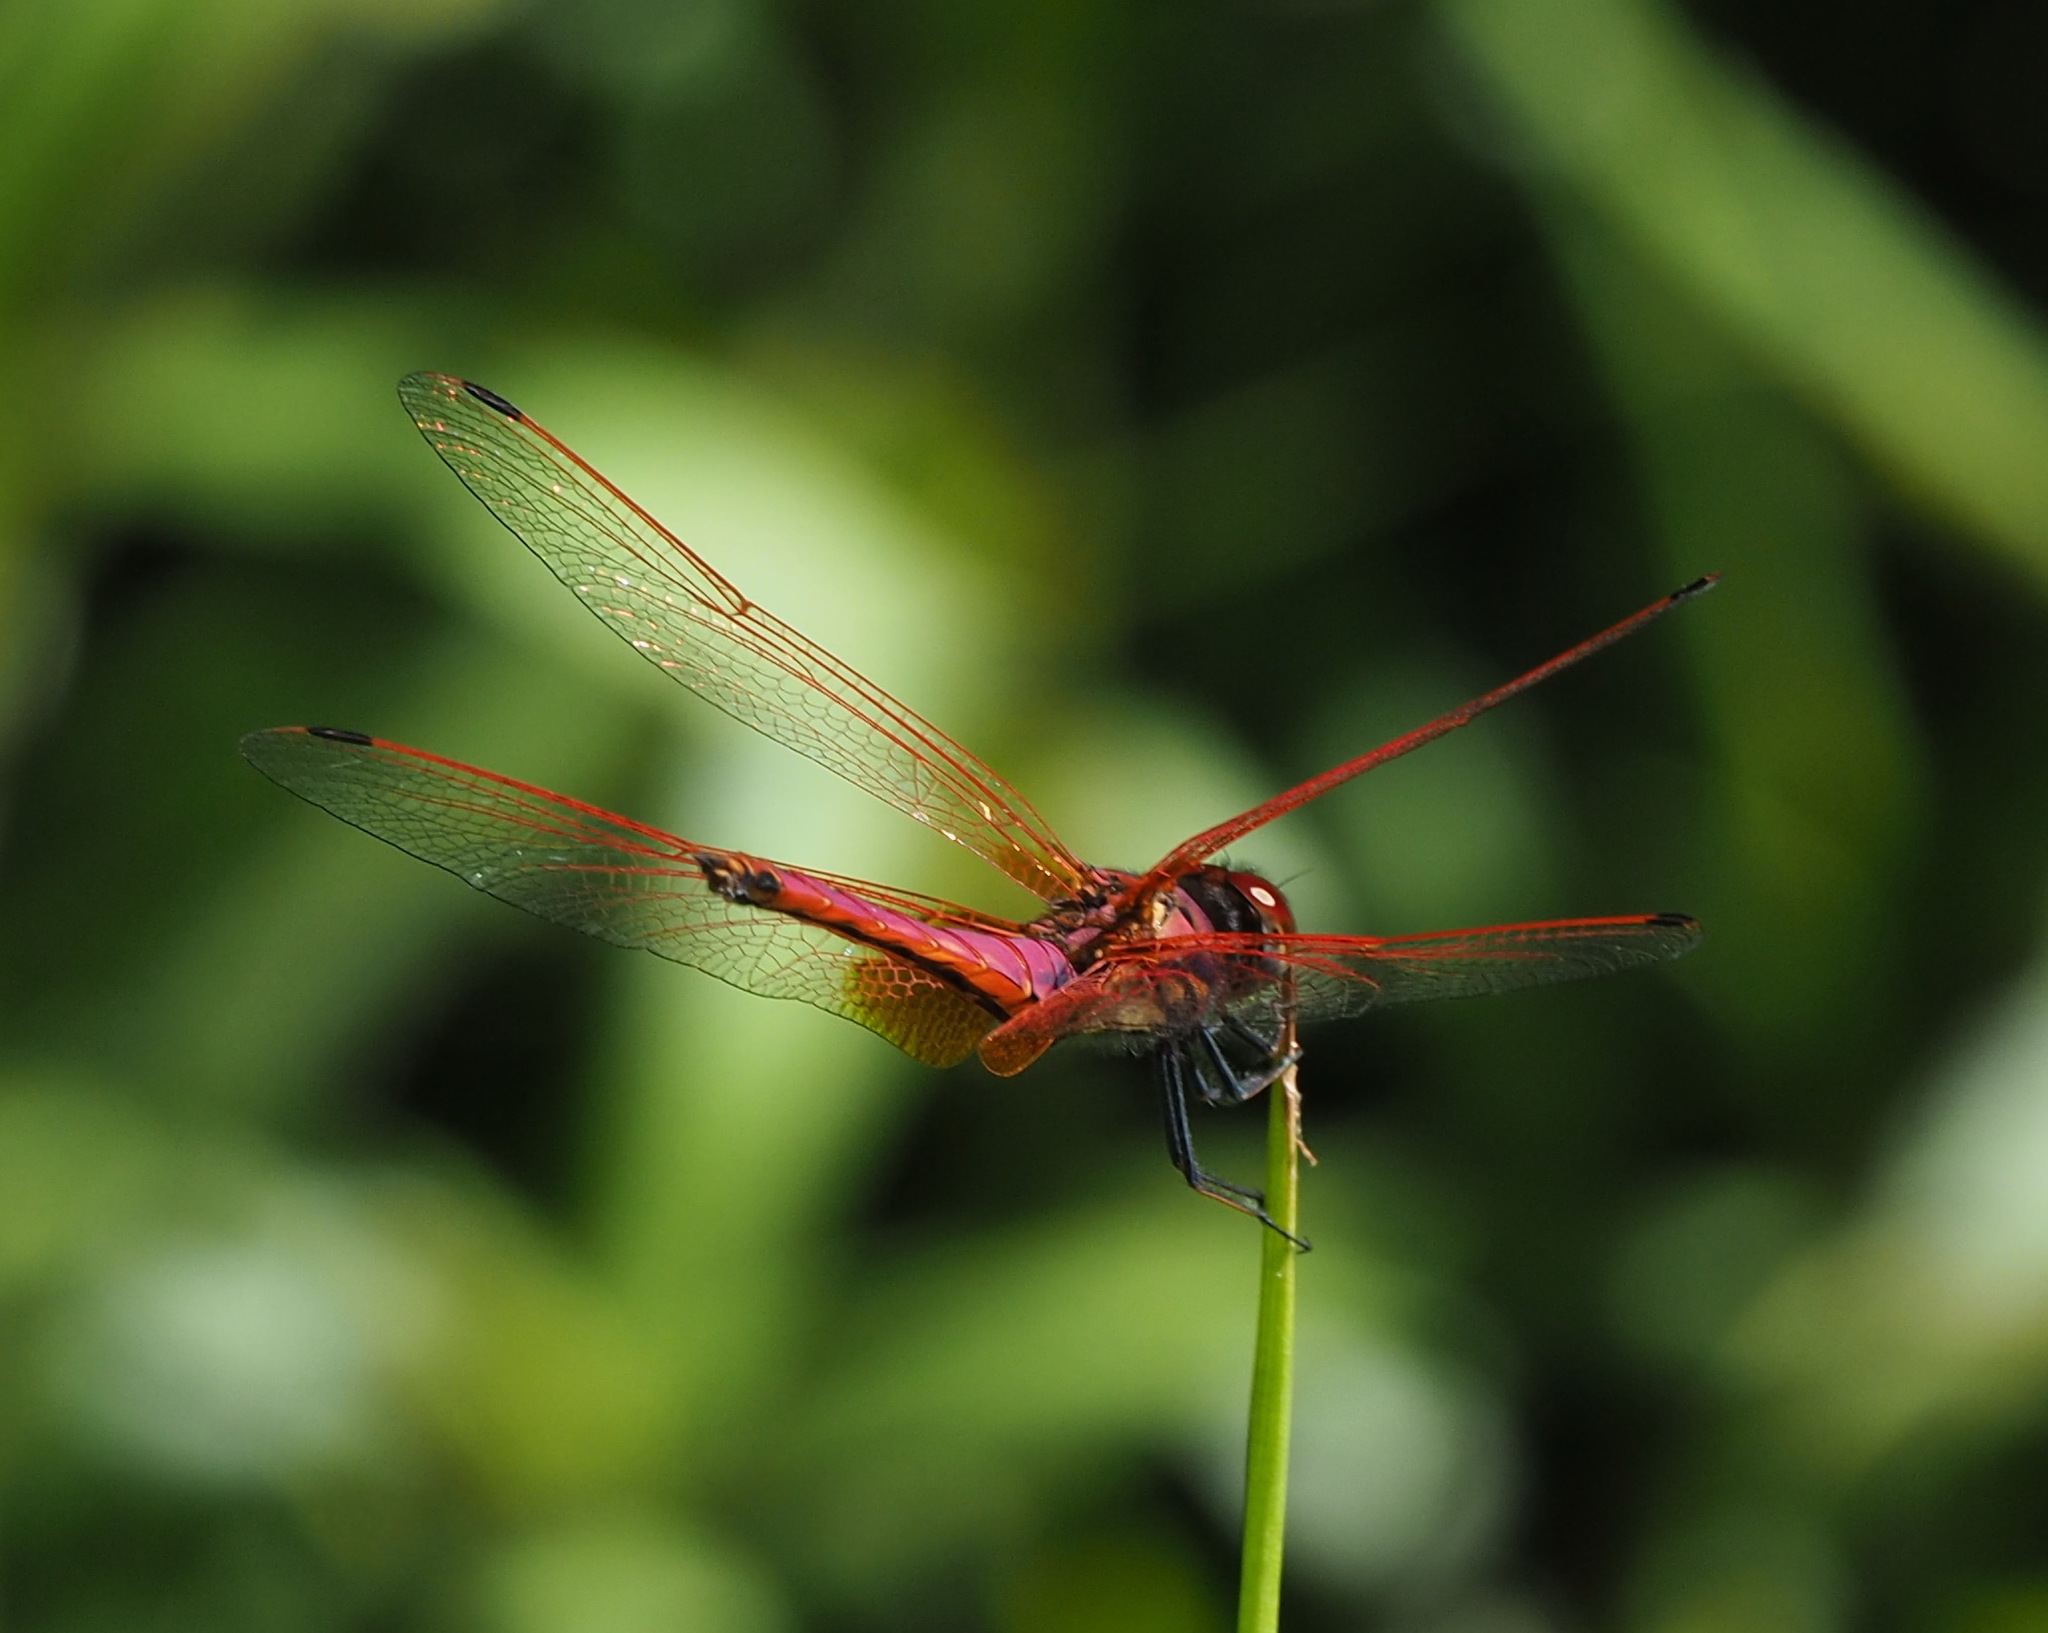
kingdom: Animalia
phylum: Arthropoda
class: Insecta
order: Odonata
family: Libellulidae
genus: Trithemis
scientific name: Trithemis aurora
